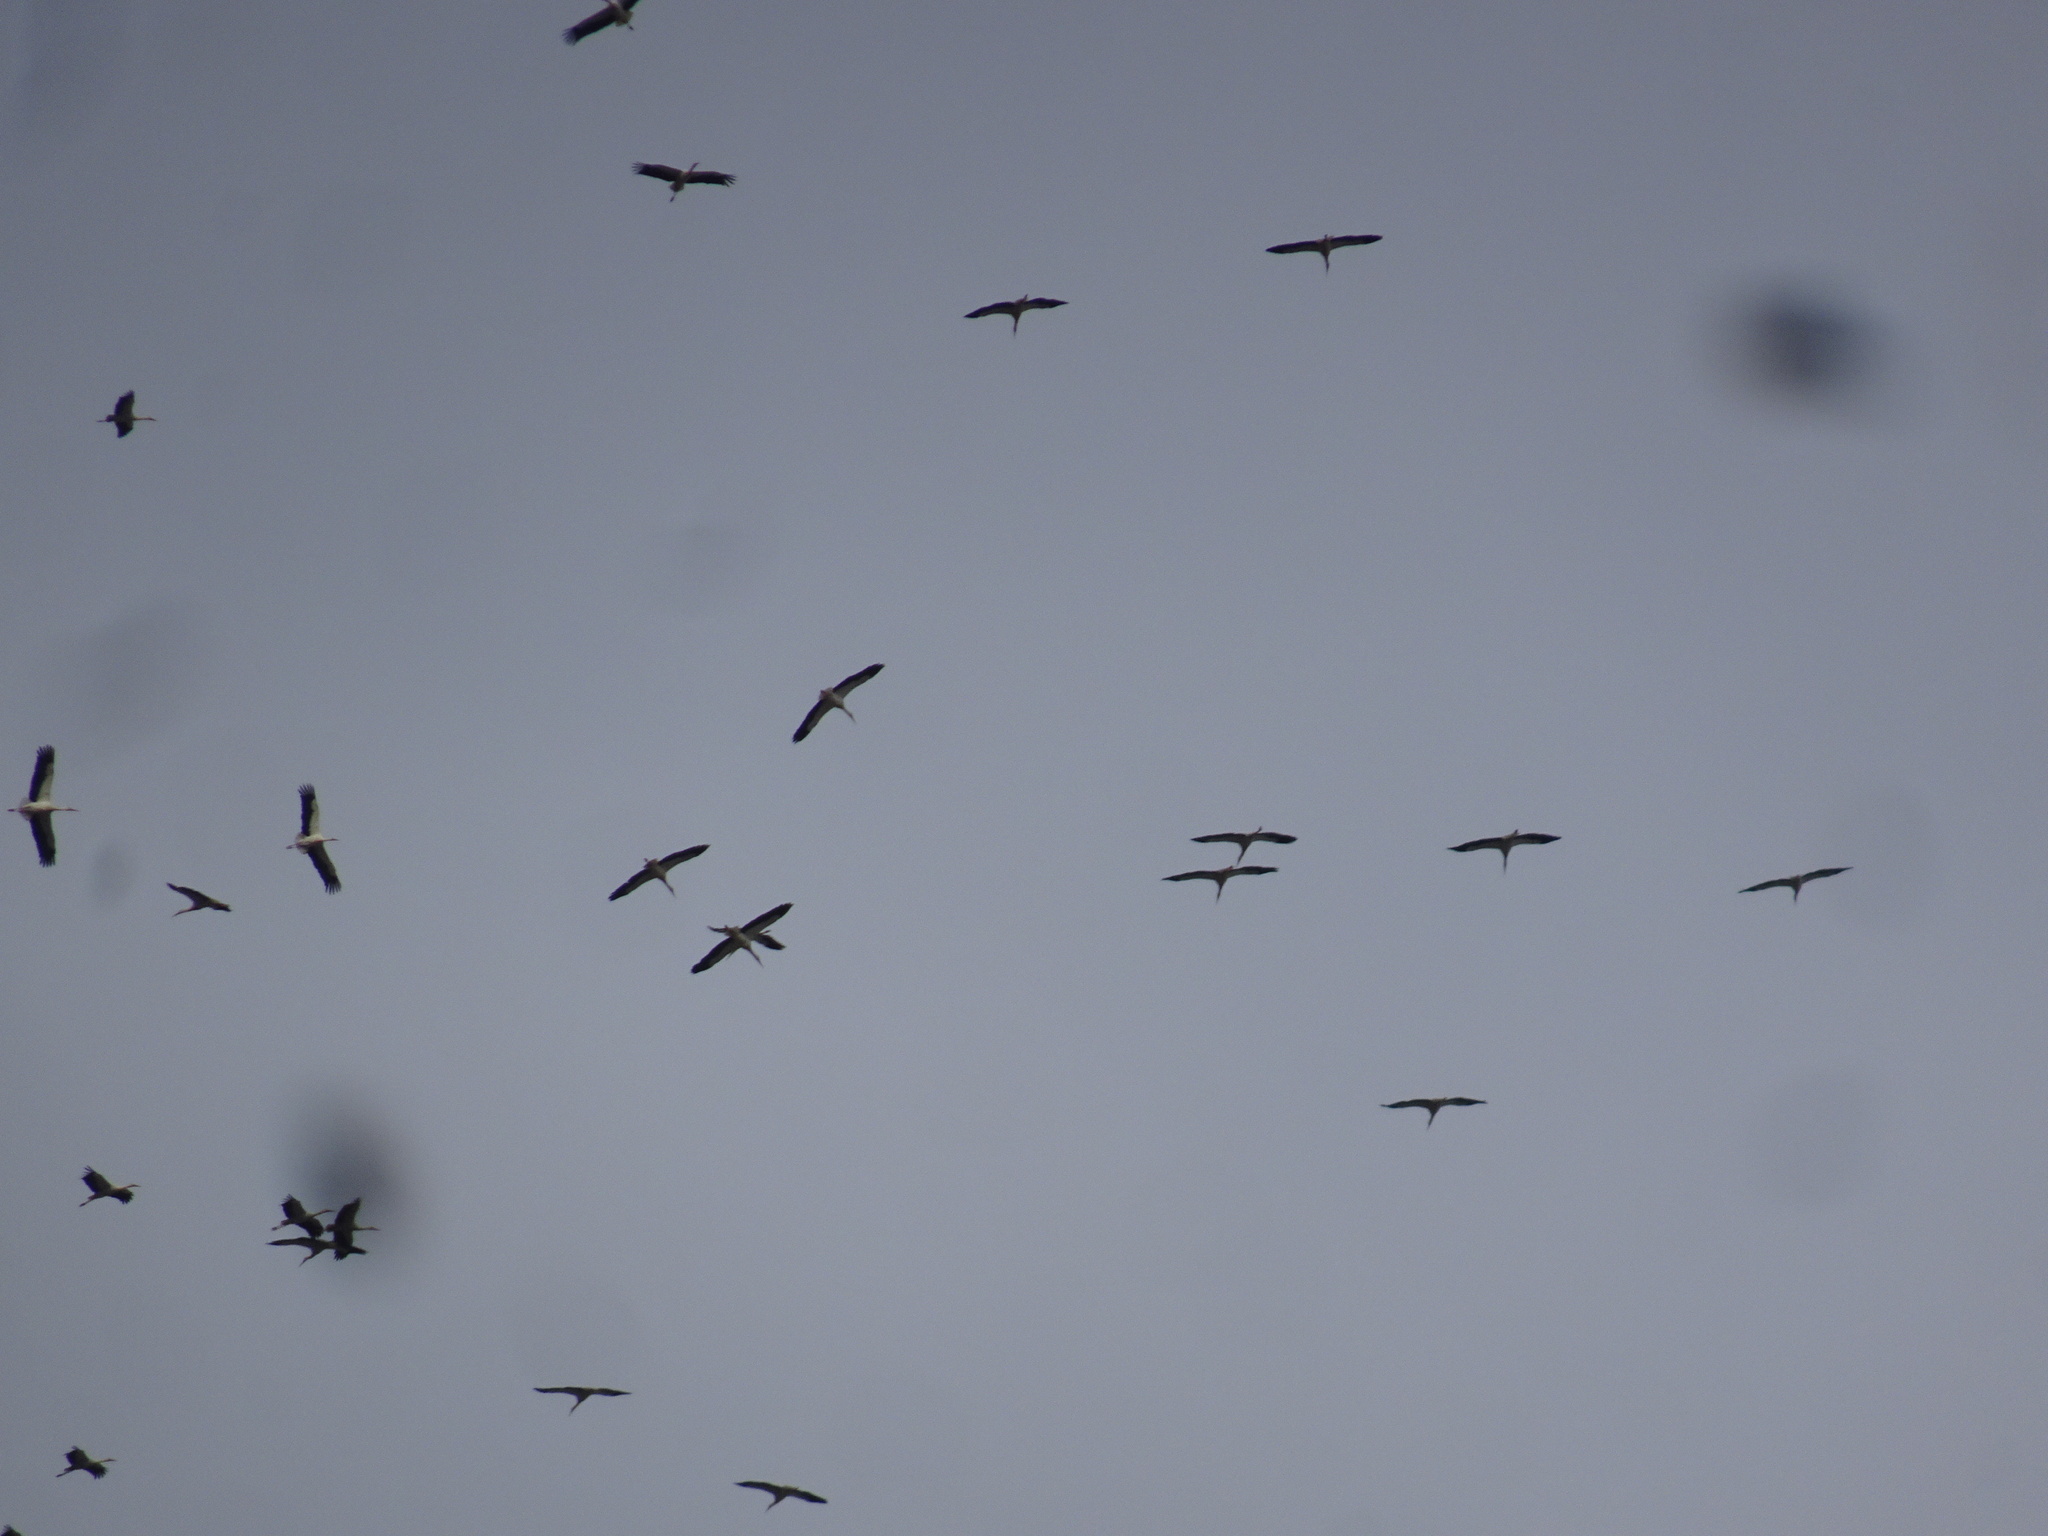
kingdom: Animalia
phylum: Chordata
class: Aves
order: Ciconiiformes
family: Ciconiidae
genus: Ciconia
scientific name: Ciconia ciconia
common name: White stork
